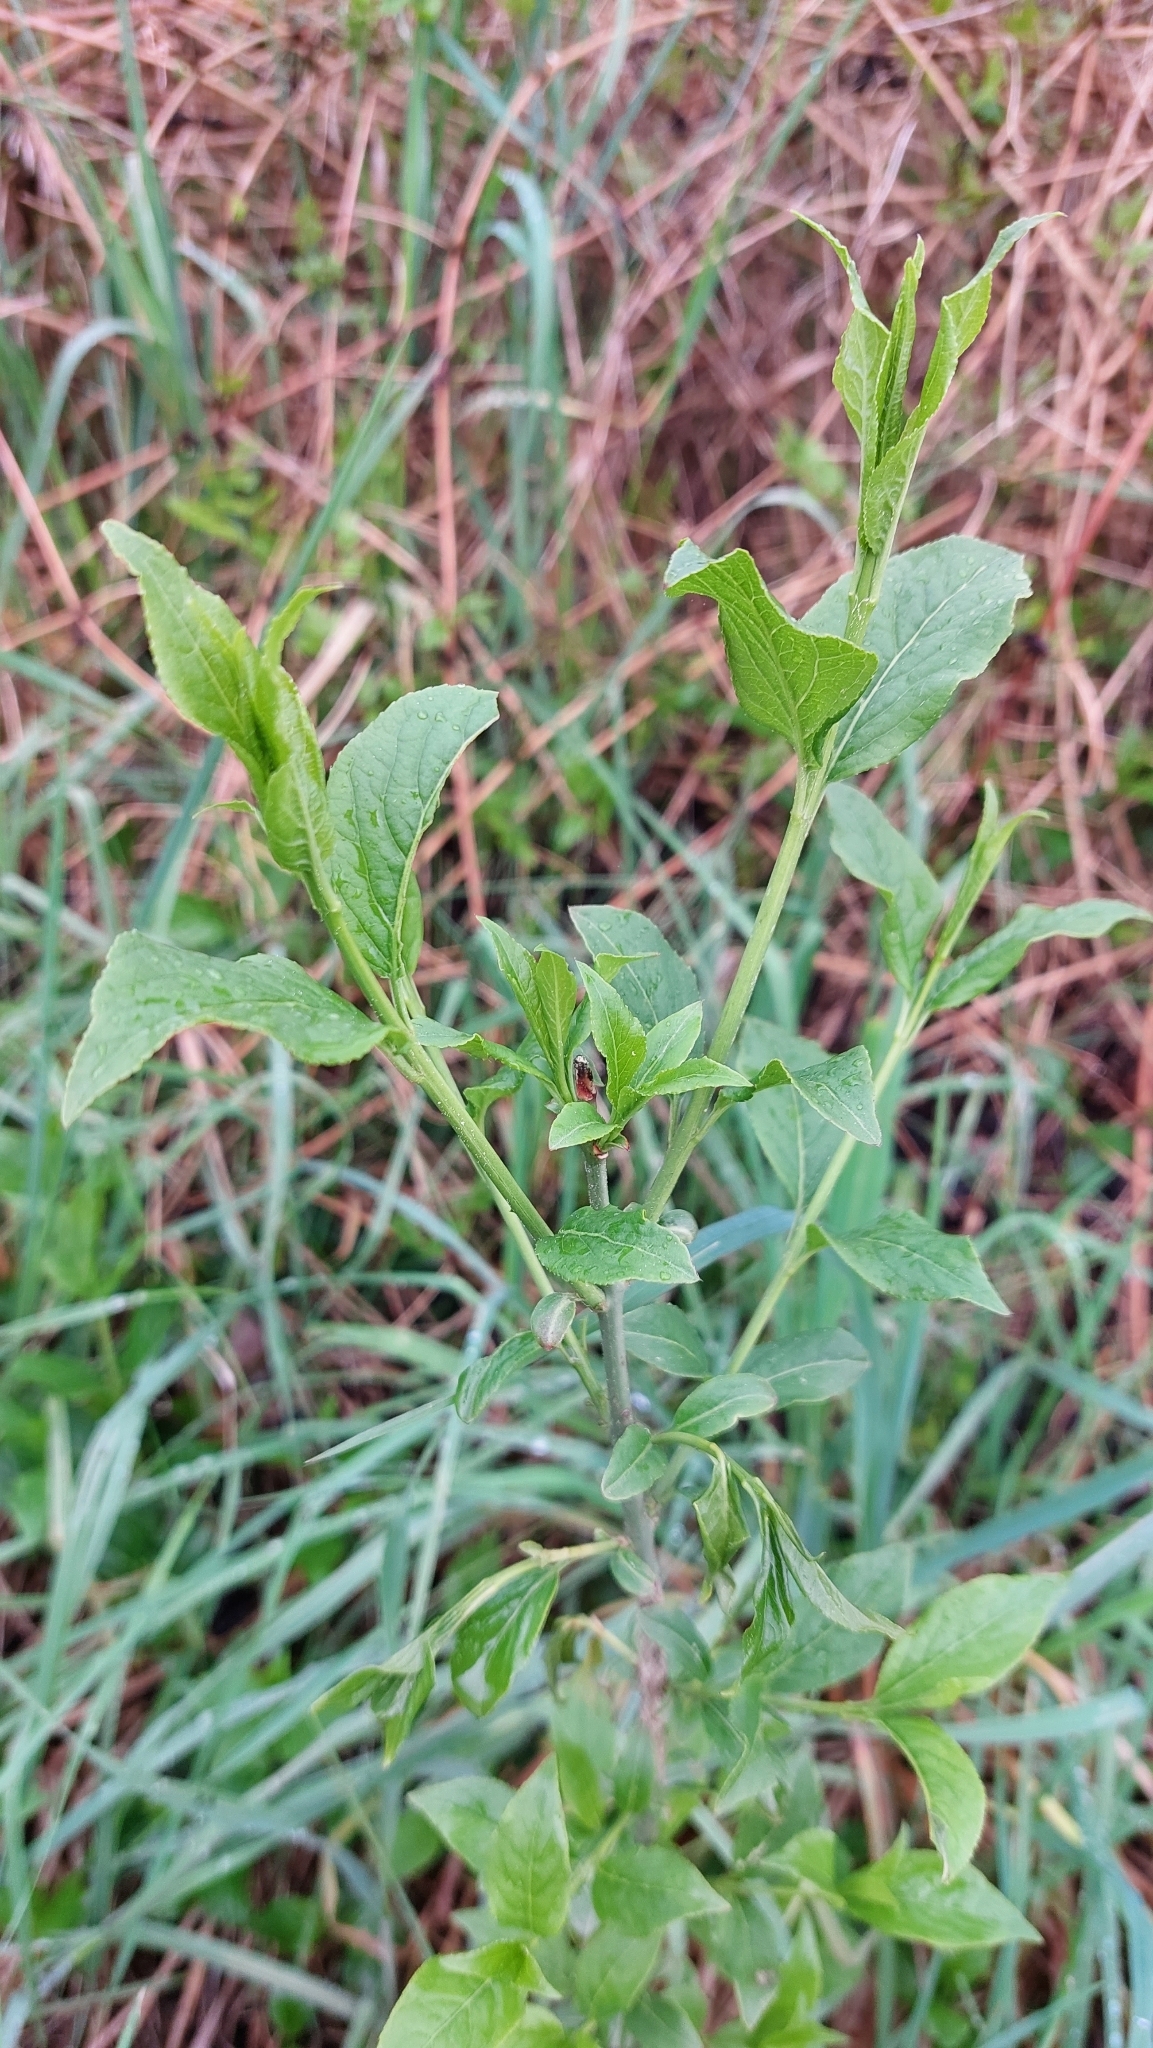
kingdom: Plantae
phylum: Tracheophyta
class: Magnoliopsida
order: Celastrales
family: Celastraceae
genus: Euonymus
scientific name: Euonymus europaeus
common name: Spindle
